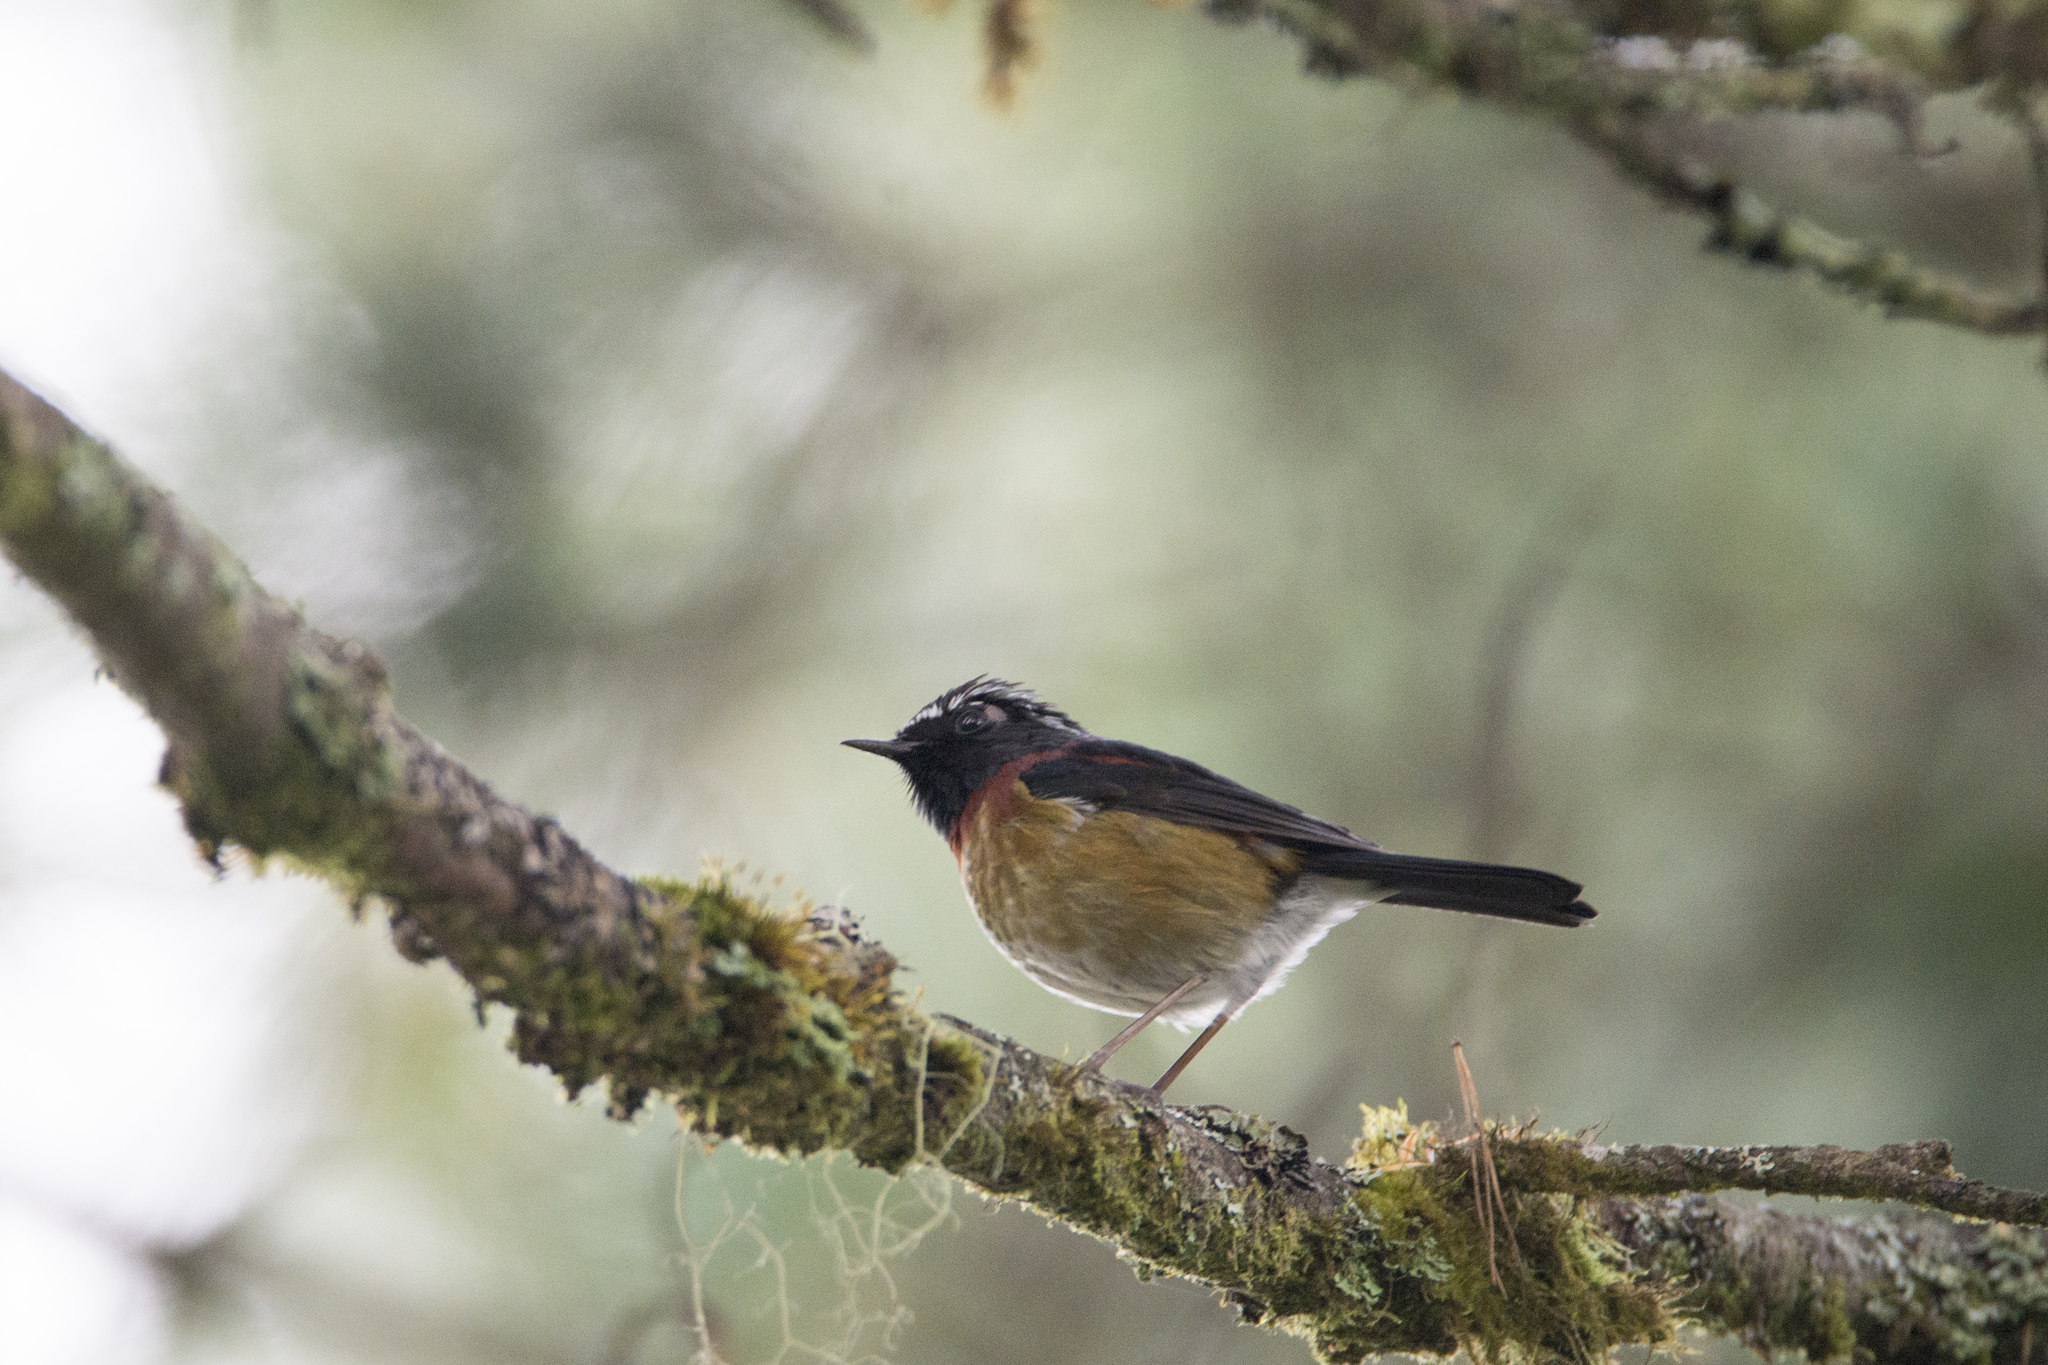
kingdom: Animalia
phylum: Chordata
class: Aves
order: Passeriformes
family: Muscicapidae
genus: Tarsiger
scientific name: Tarsiger johnstoniae
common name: Collared bush robin
